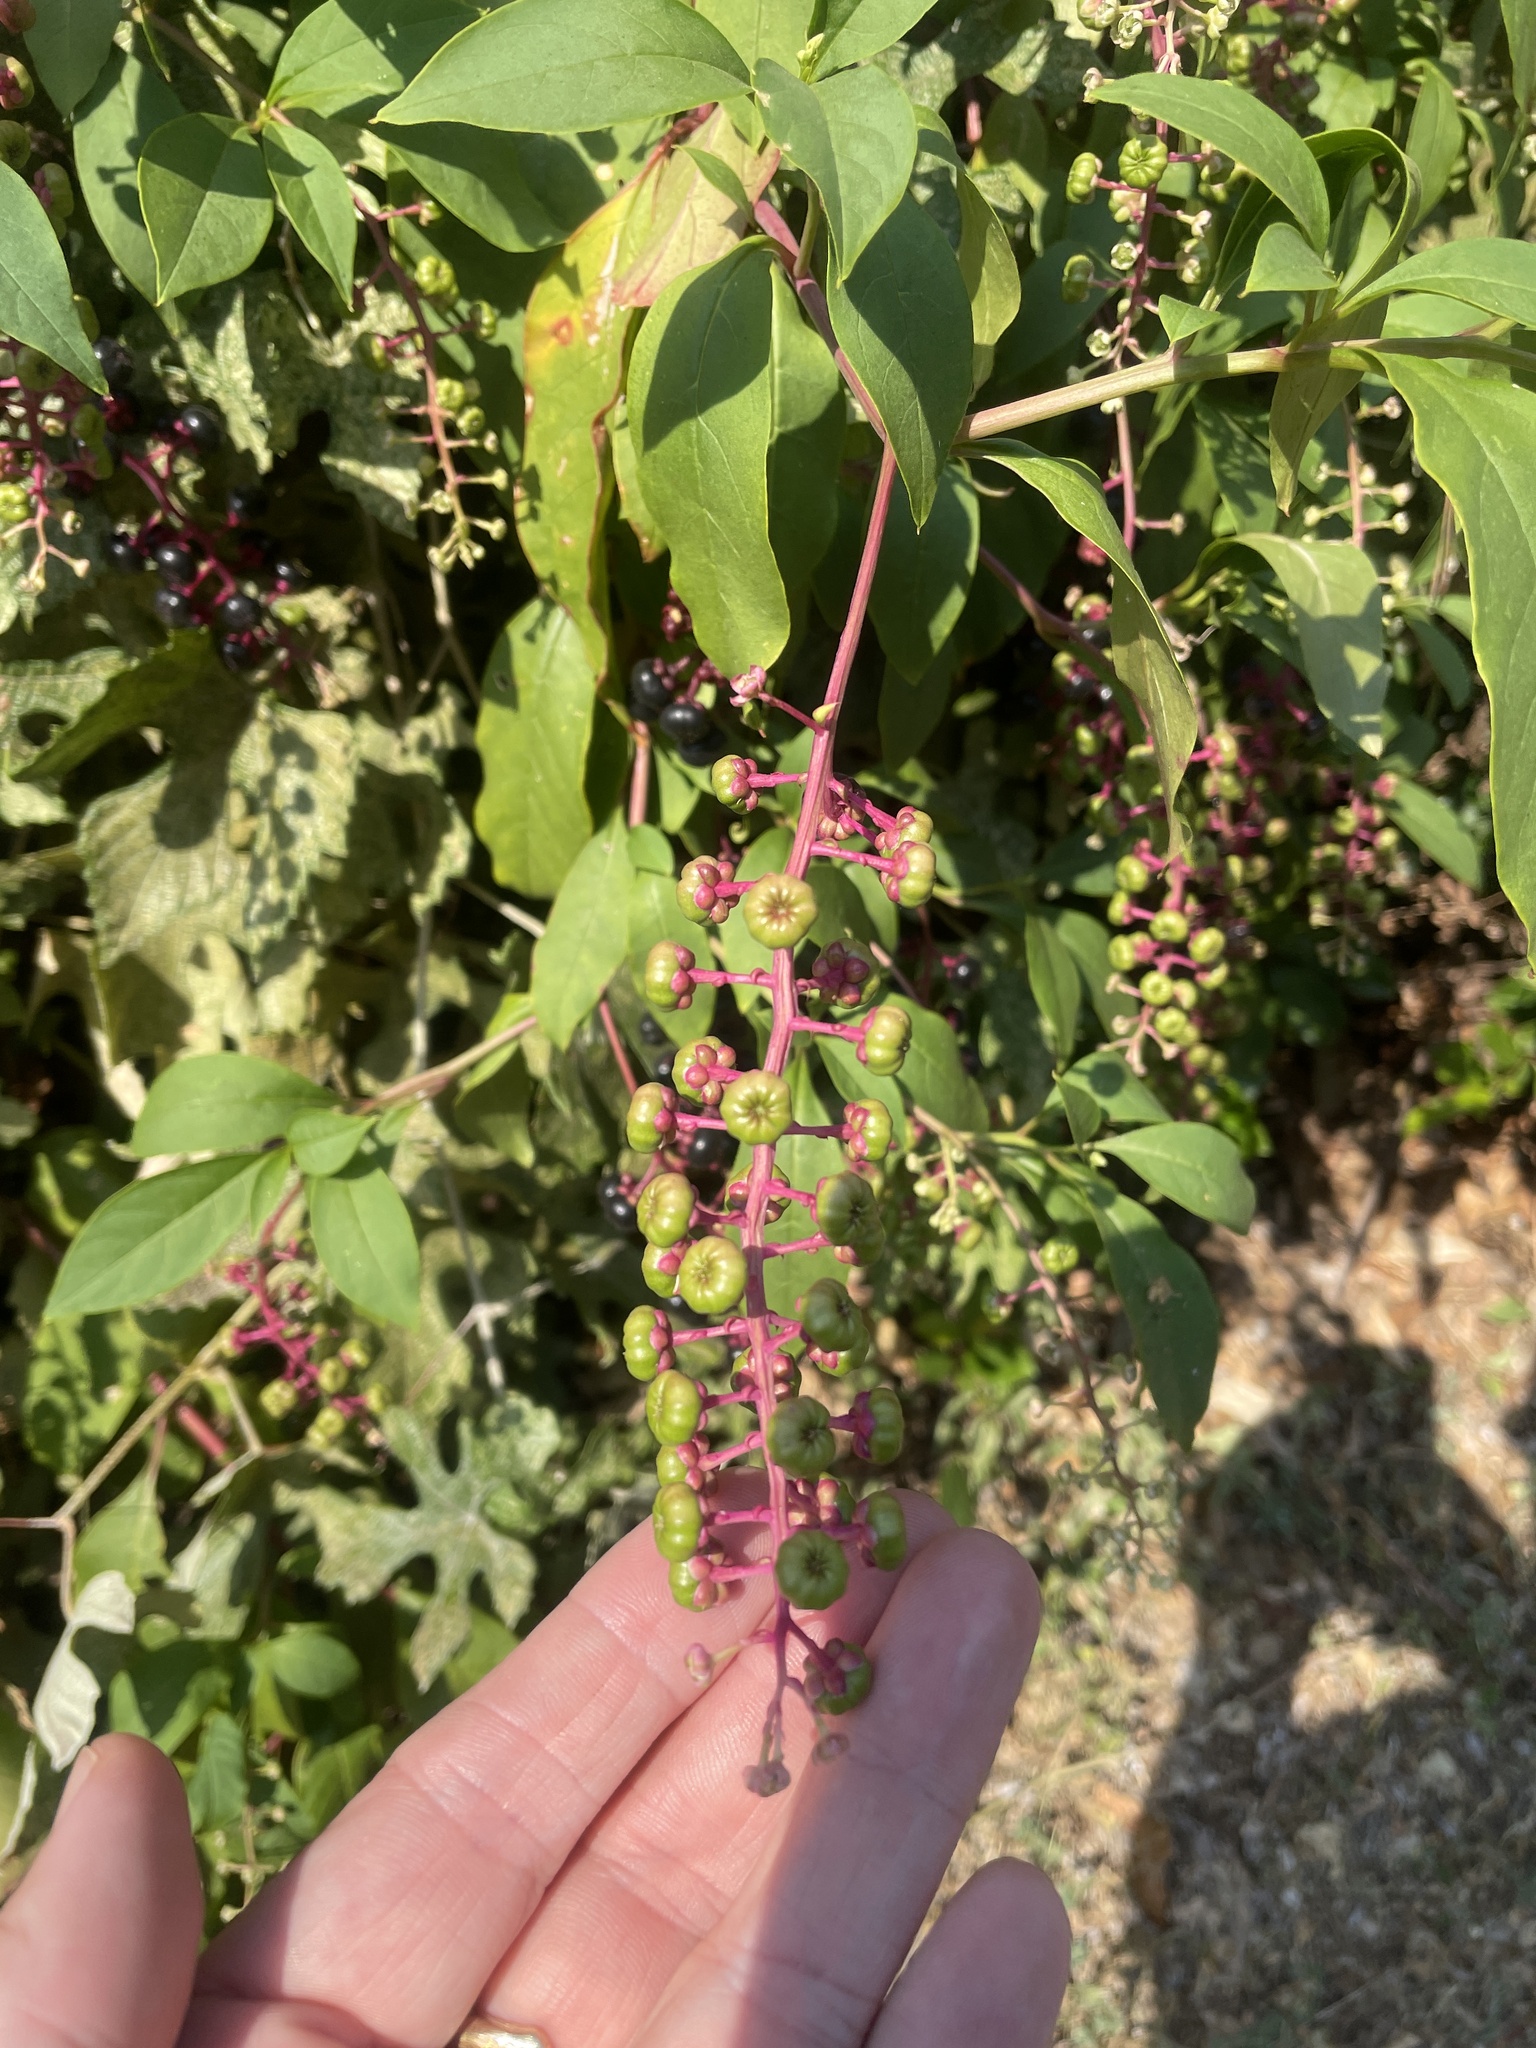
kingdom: Plantae
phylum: Tracheophyta
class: Magnoliopsida
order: Caryophyllales
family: Phytolaccaceae
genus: Phytolacca
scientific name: Phytolacca americana
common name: American pokeweed
